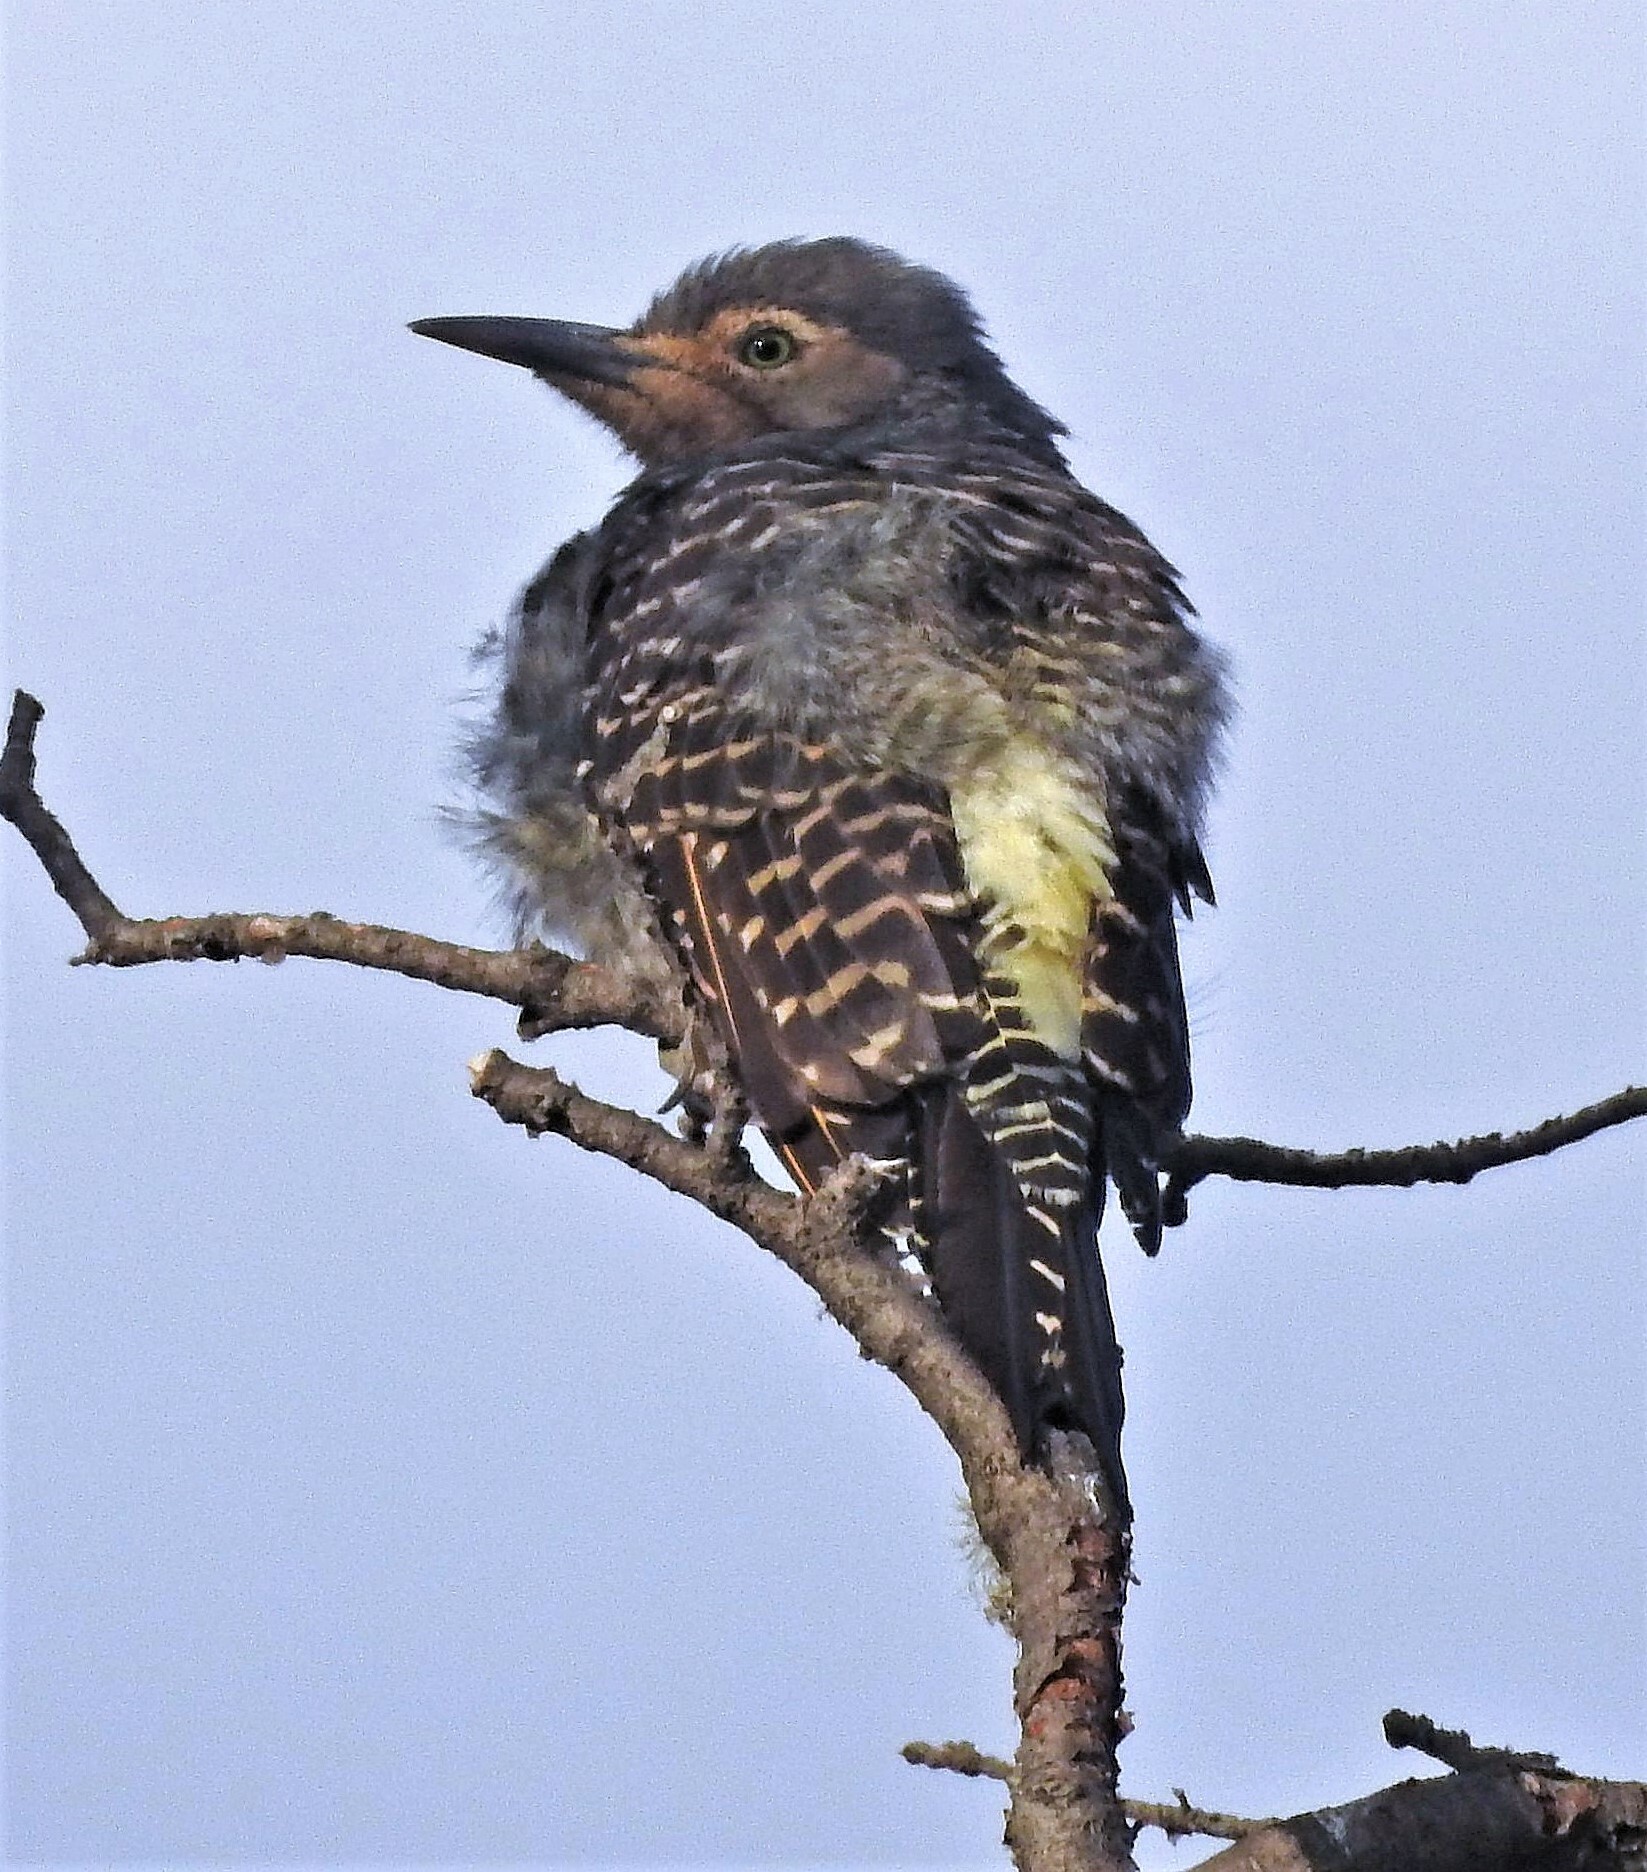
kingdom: Animalia
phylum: Chordata
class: Aves
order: Piciformes
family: Picidae
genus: Colaptes
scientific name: Colaptes pitius
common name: Chilean flicker
